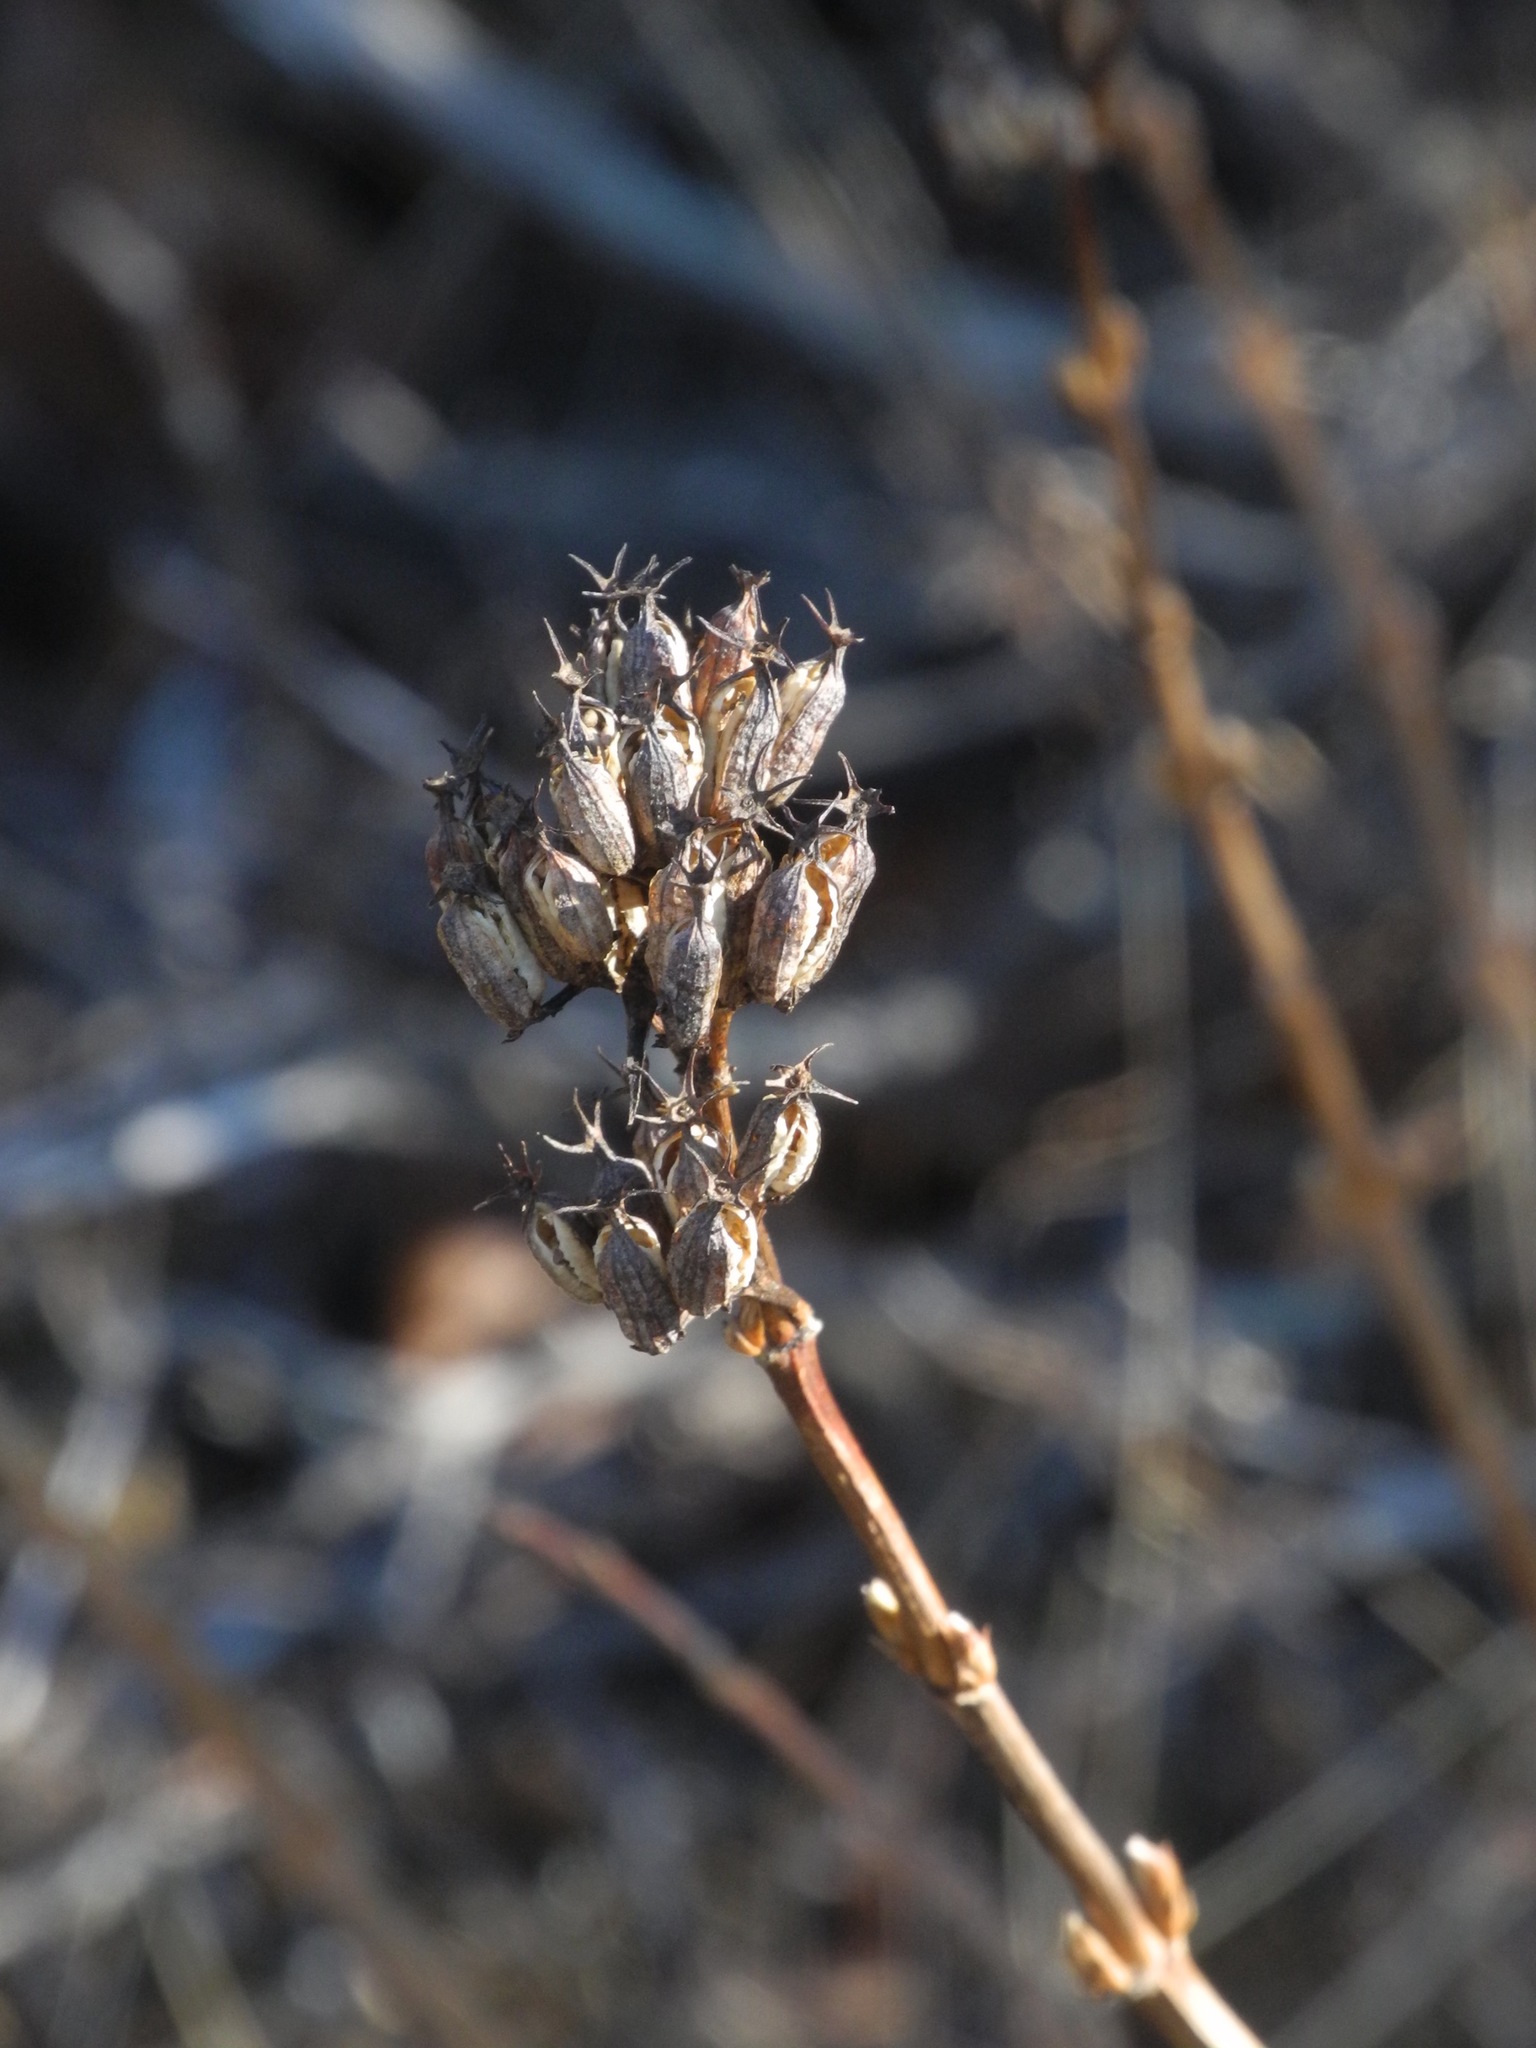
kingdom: Plantae
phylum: Tracheophyta
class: Magnoliopsida
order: Dipsacales
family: Caprifoliaceae
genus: Diervilla
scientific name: Diervilla sessilifolia
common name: Bush-honeysuckle
